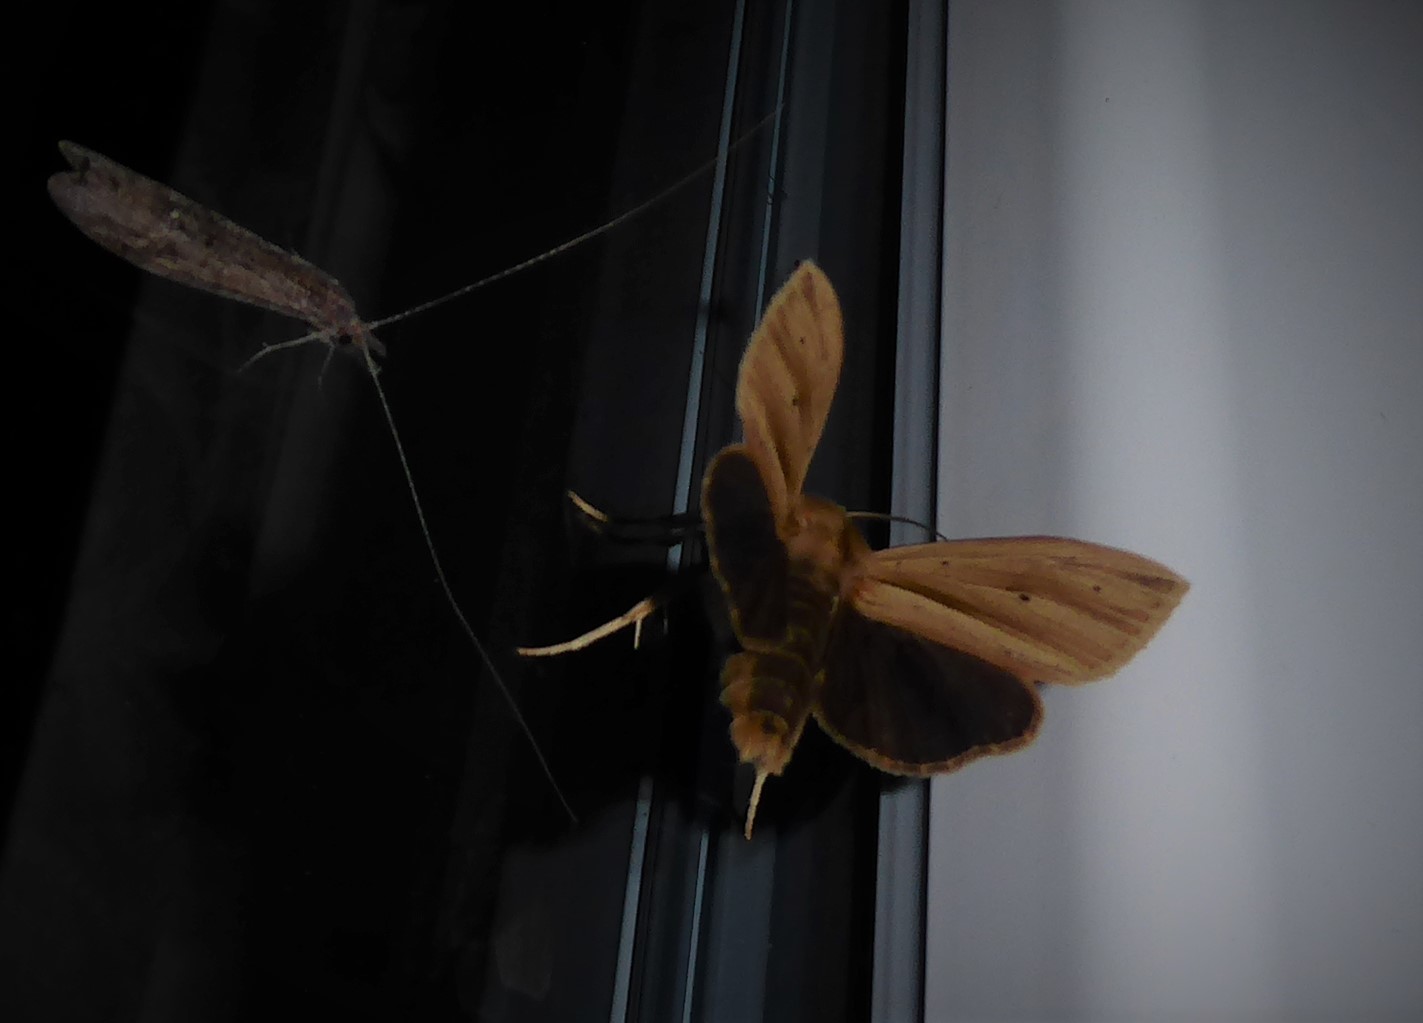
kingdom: Animalia
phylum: Arthropoda
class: Insecta
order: Lepidoptera
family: Noctuidae
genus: Ichneutica
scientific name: Ichneutica sulcana
